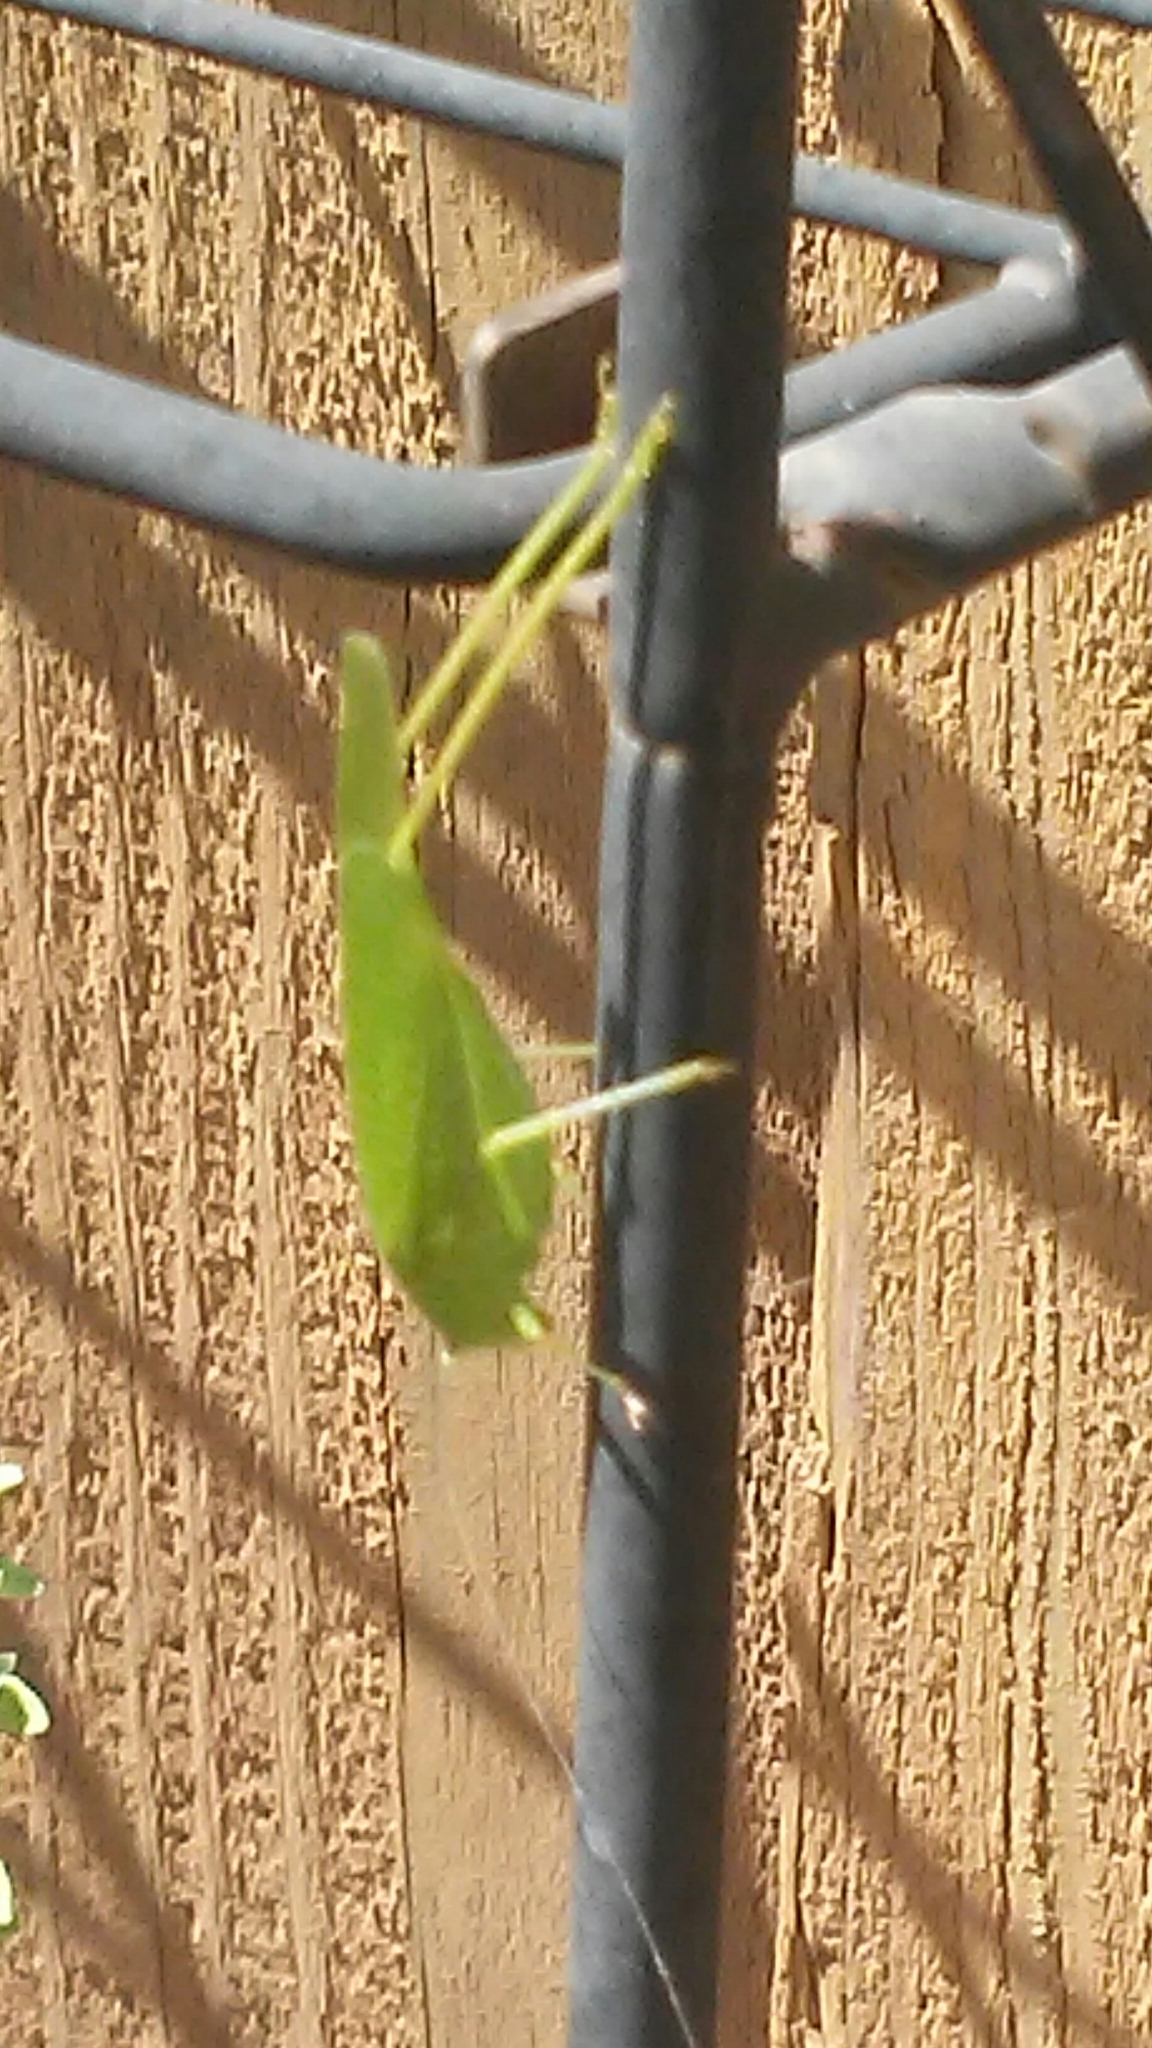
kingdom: Animalia
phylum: Arthropoda
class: Insecta
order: Orthoptera
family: Tettigoniidae
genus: Phaneroptera
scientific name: Phaneroptera nana
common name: Southern sickle bush-cricket
